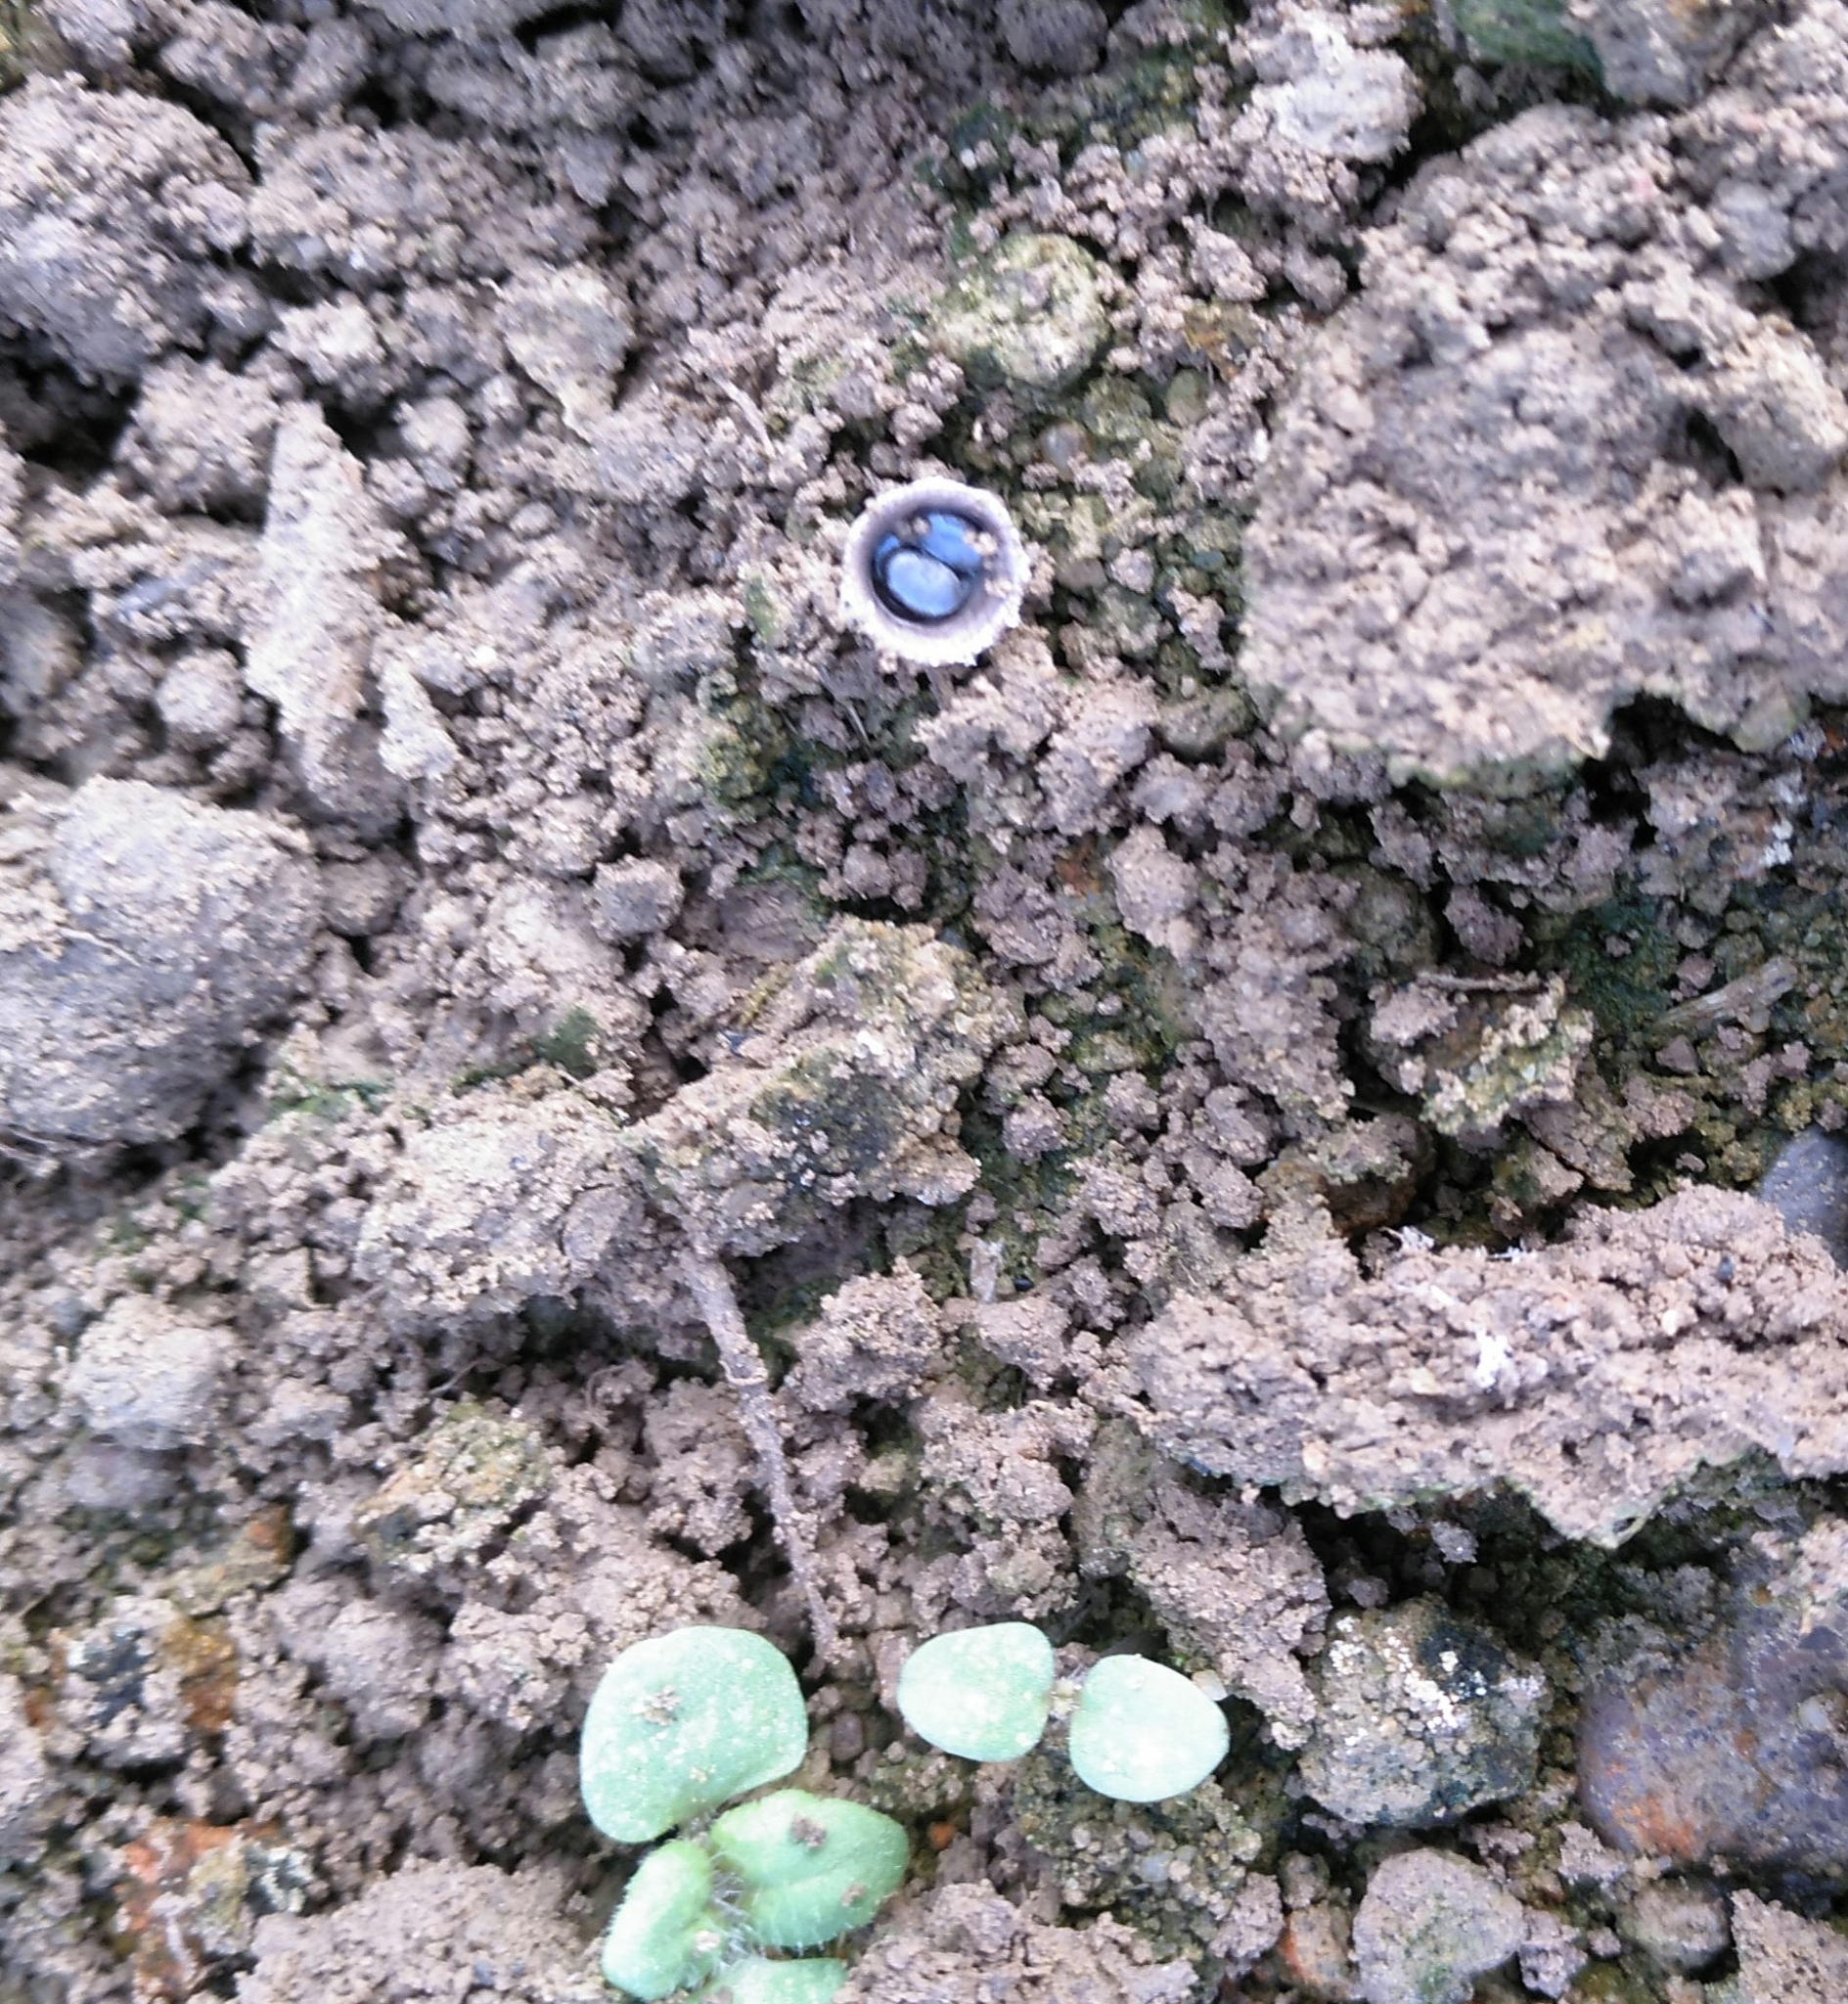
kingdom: Fungi
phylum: Basidiomycota
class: Agaricomycetes
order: Agaricales
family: Agaricaceae
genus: Cyathus
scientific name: Cyathus stercoreus
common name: Dung bird's nest
